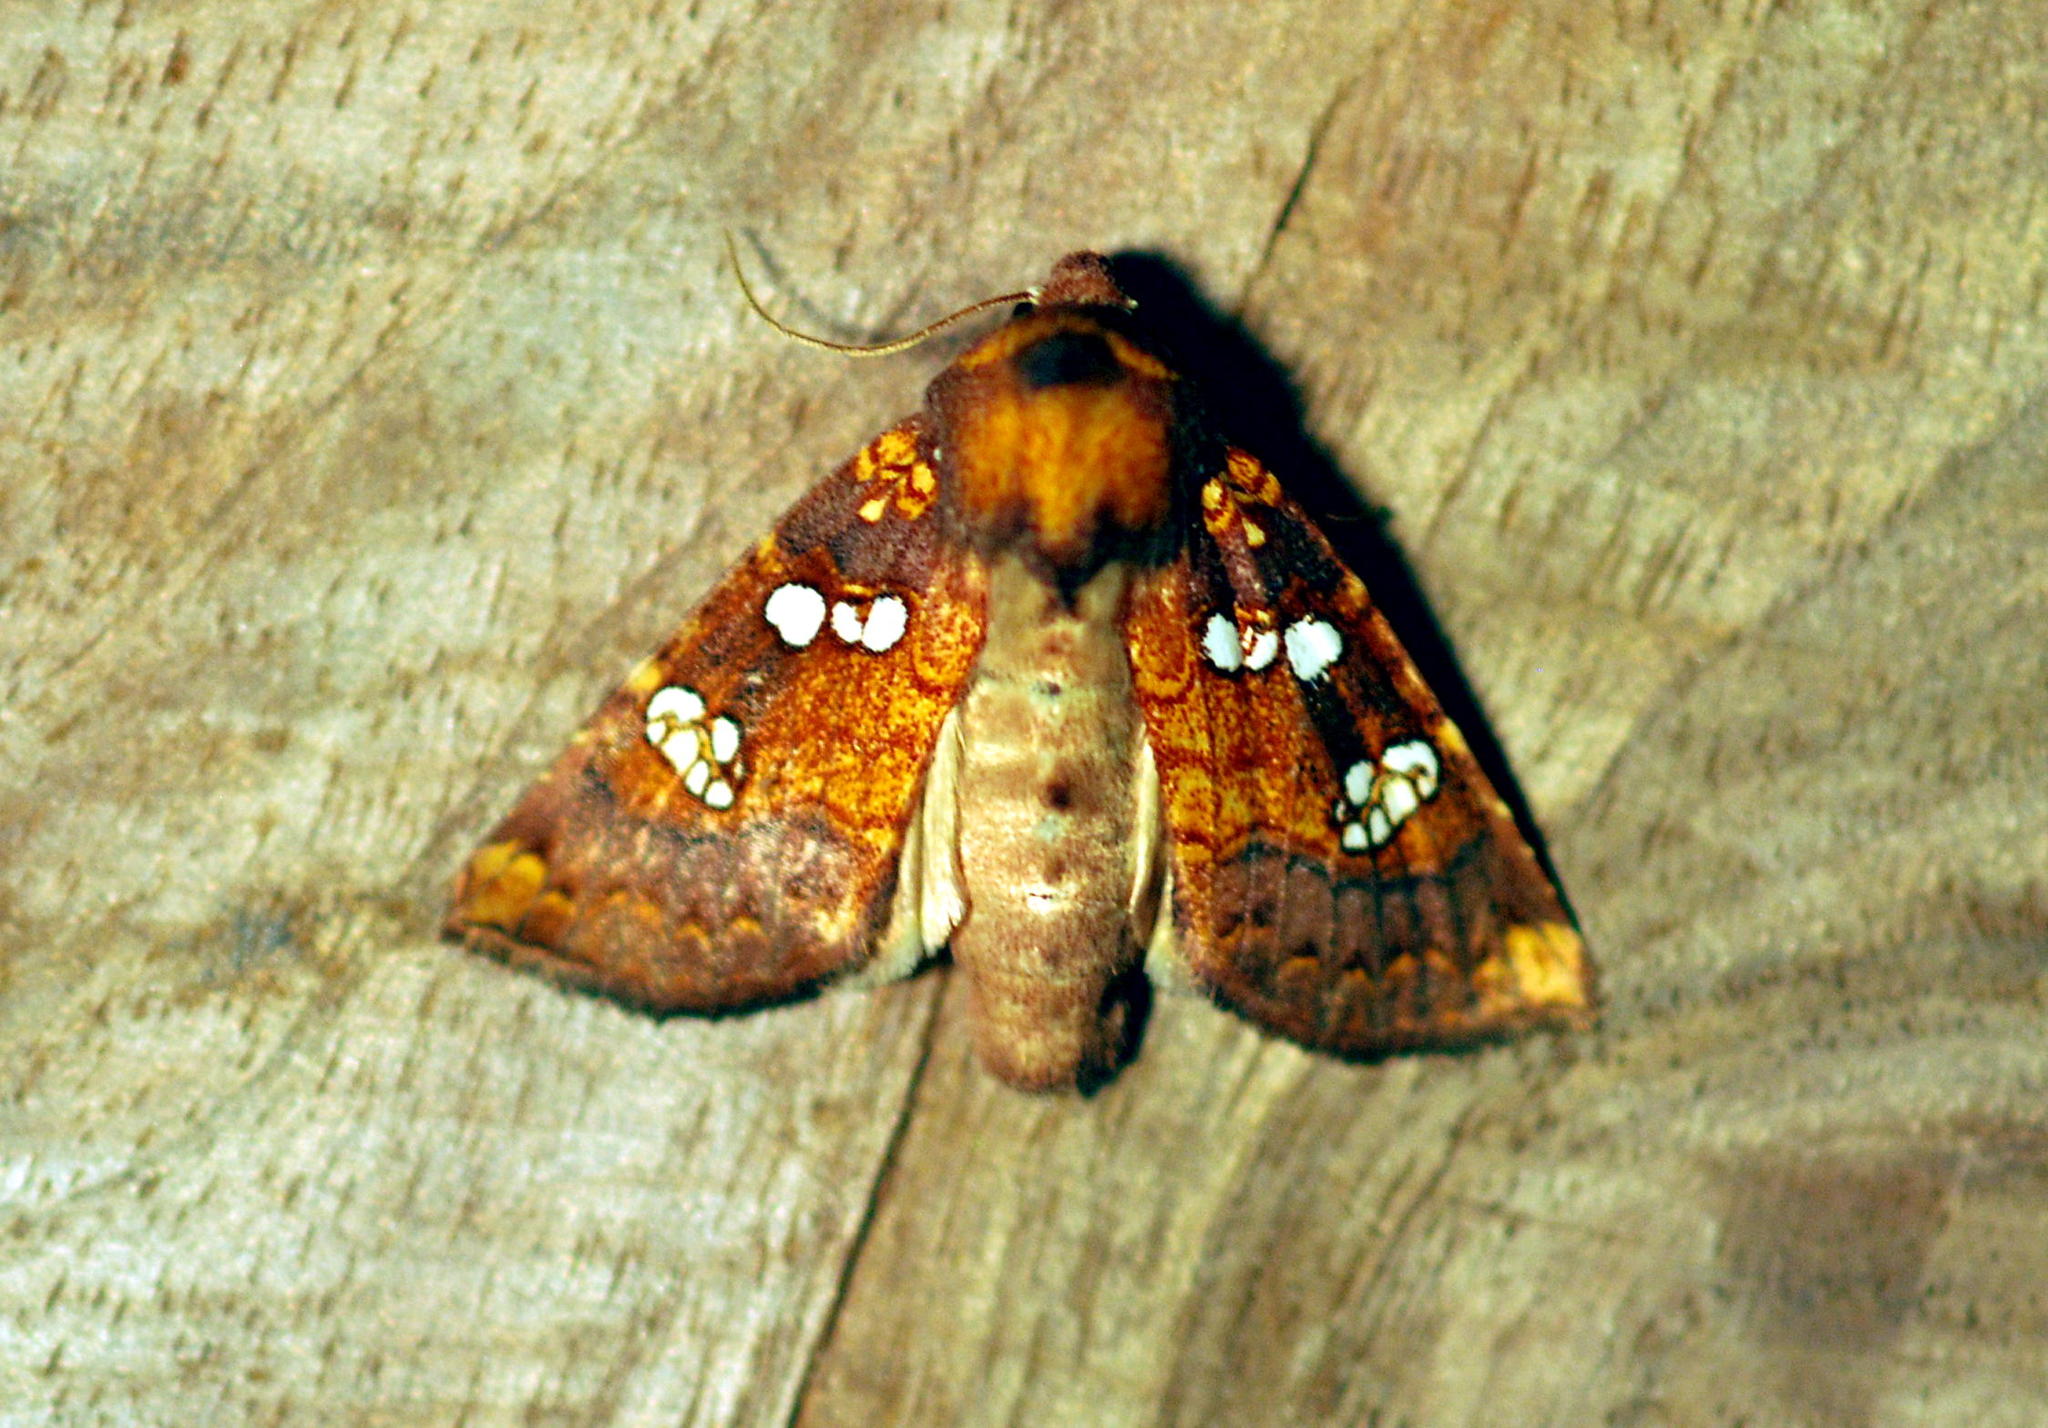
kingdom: Animalia
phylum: Arthropoda
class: Insecta
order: Lepidoptera
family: Noctuidae
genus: Papaipema
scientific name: Papaipema baptisiae
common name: Wild indigo borer moth
